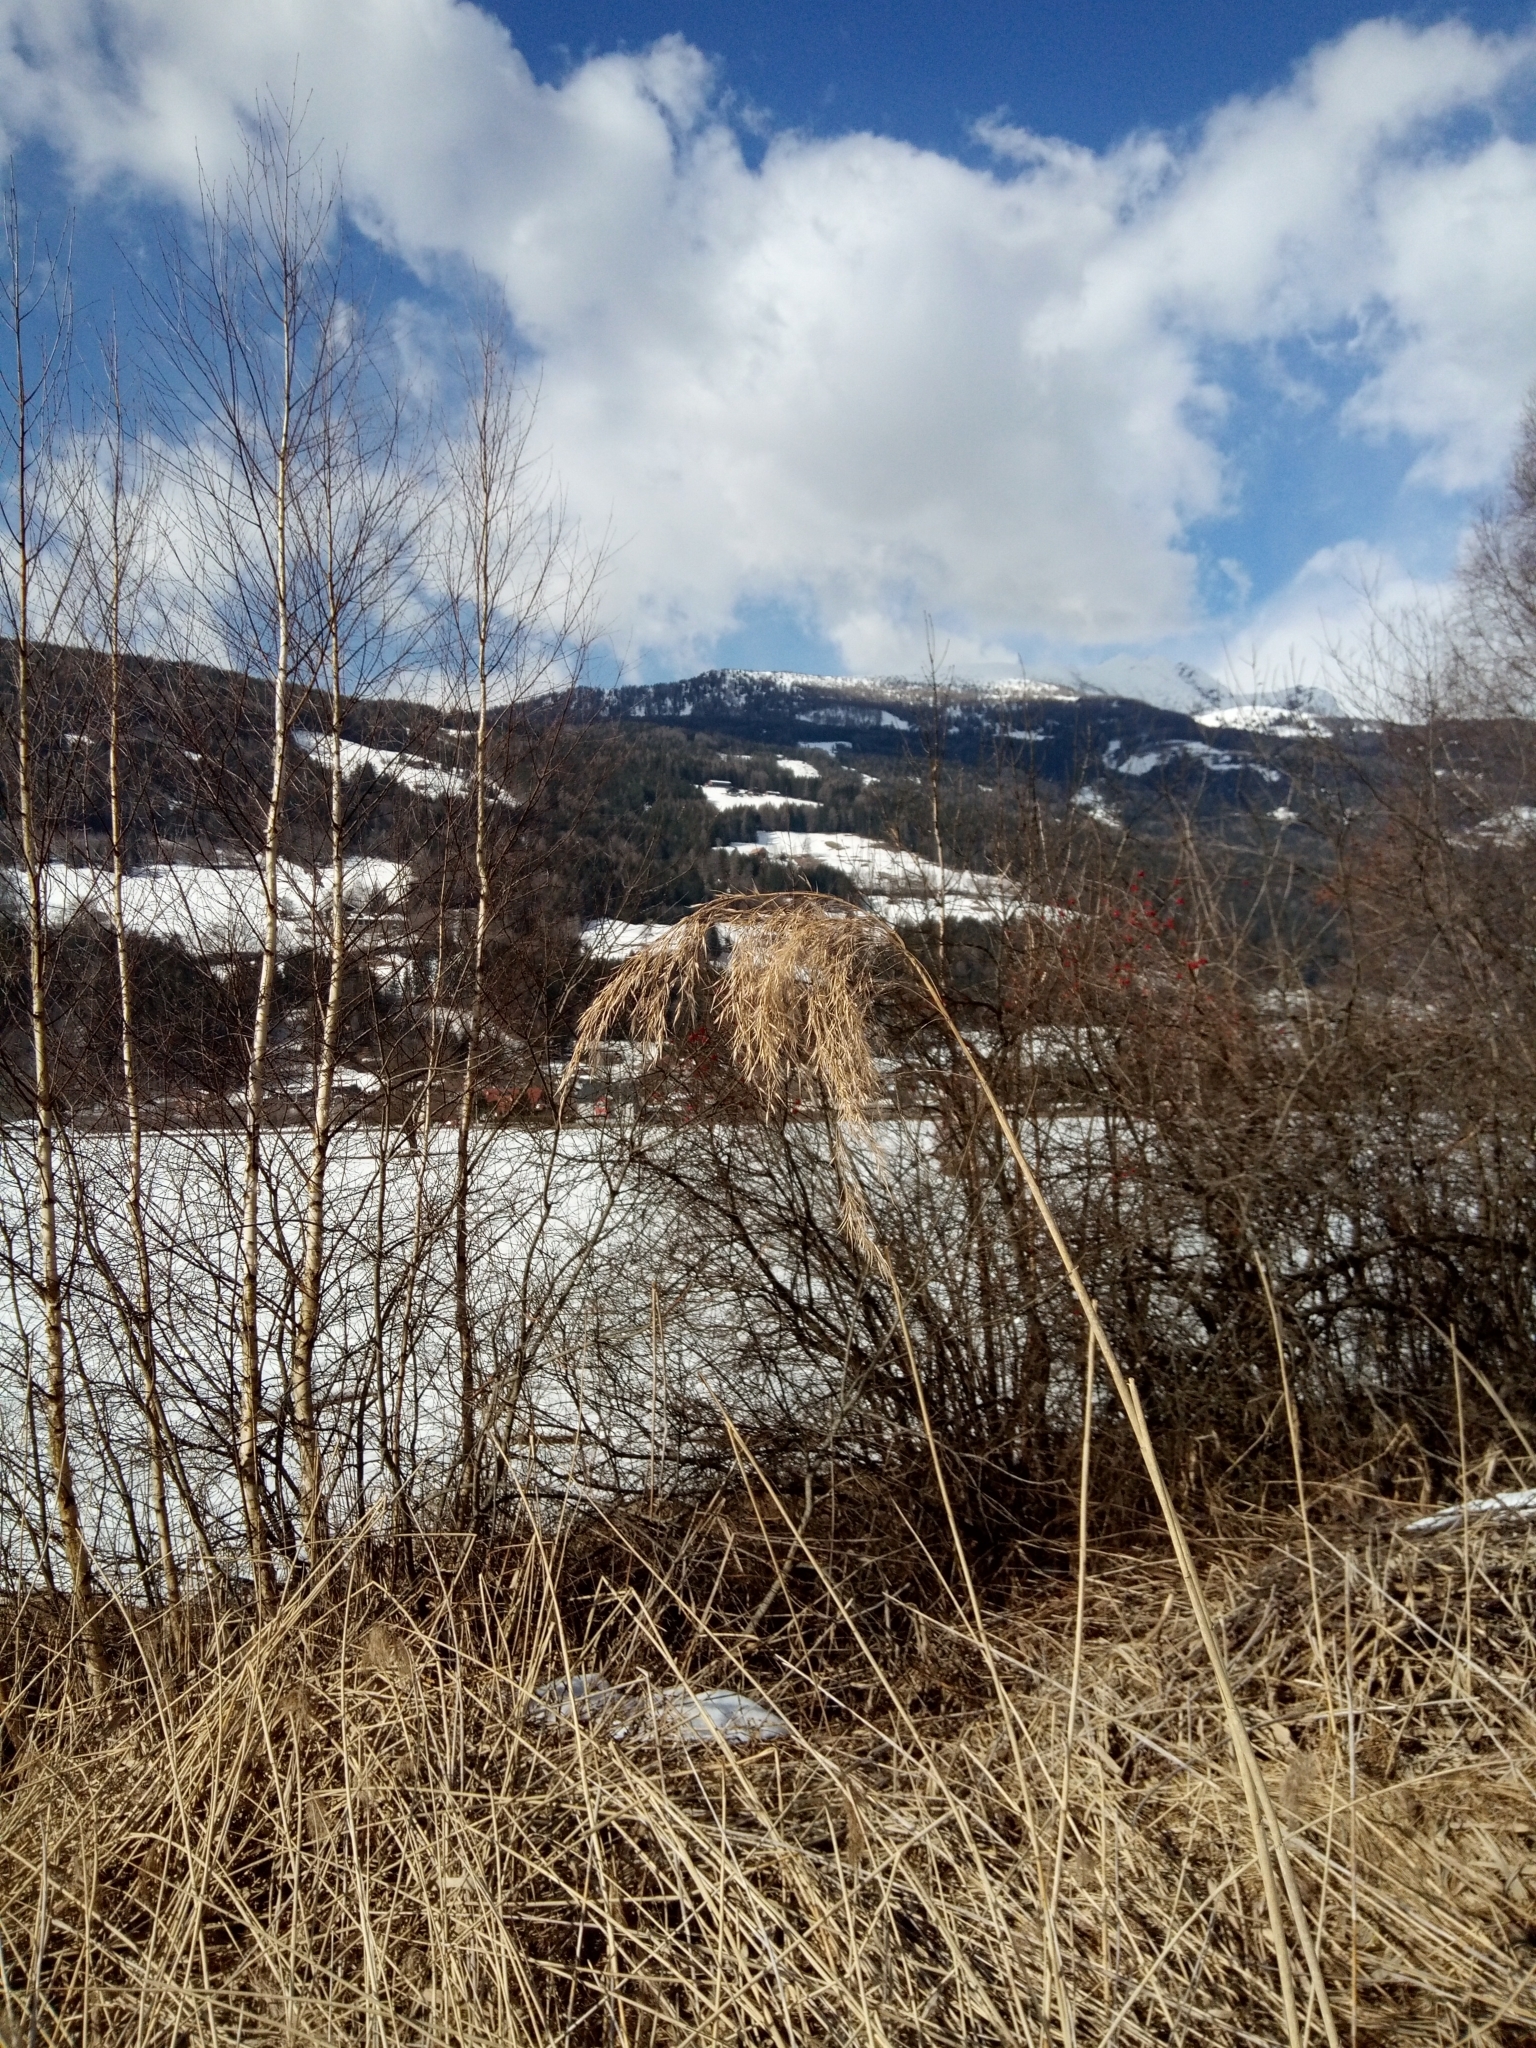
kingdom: Plantae
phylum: Tracheophyta
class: Liliopsida
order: Poales
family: Poaceae
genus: Phragmites
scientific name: Phragmites australis
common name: Common reed
